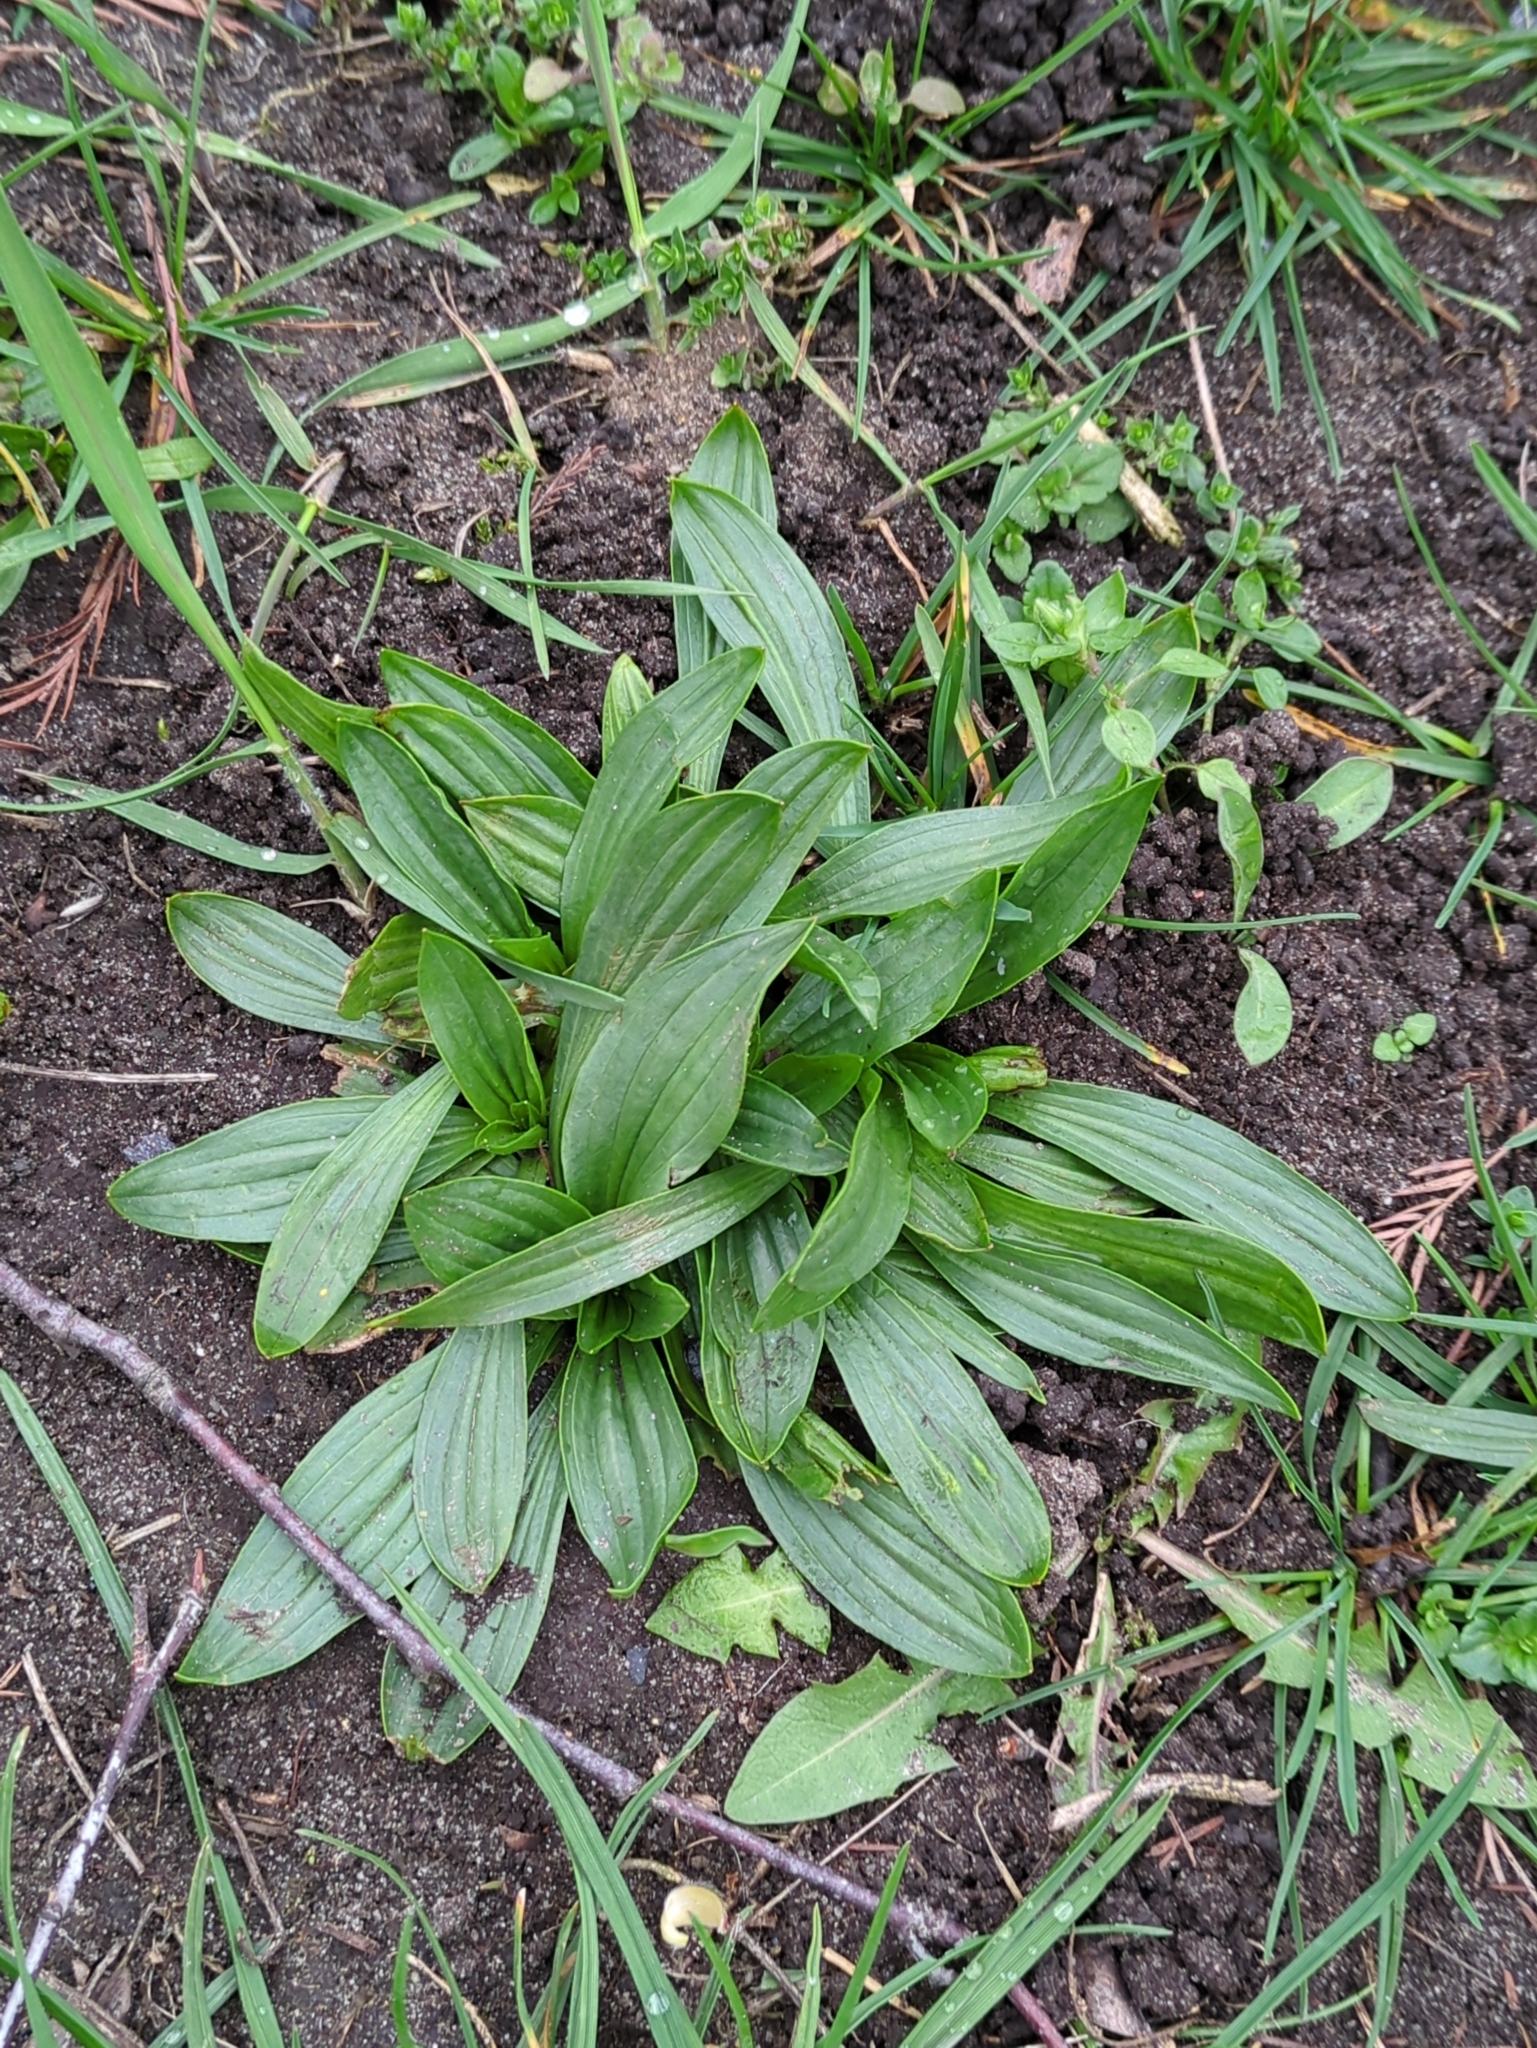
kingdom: Plantae
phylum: Tracheophyta
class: Magnoliopsida
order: Lamiales
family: Plantaginaceae
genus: Plantago
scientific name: Plantago lanceolata
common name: Ribwort plantain
